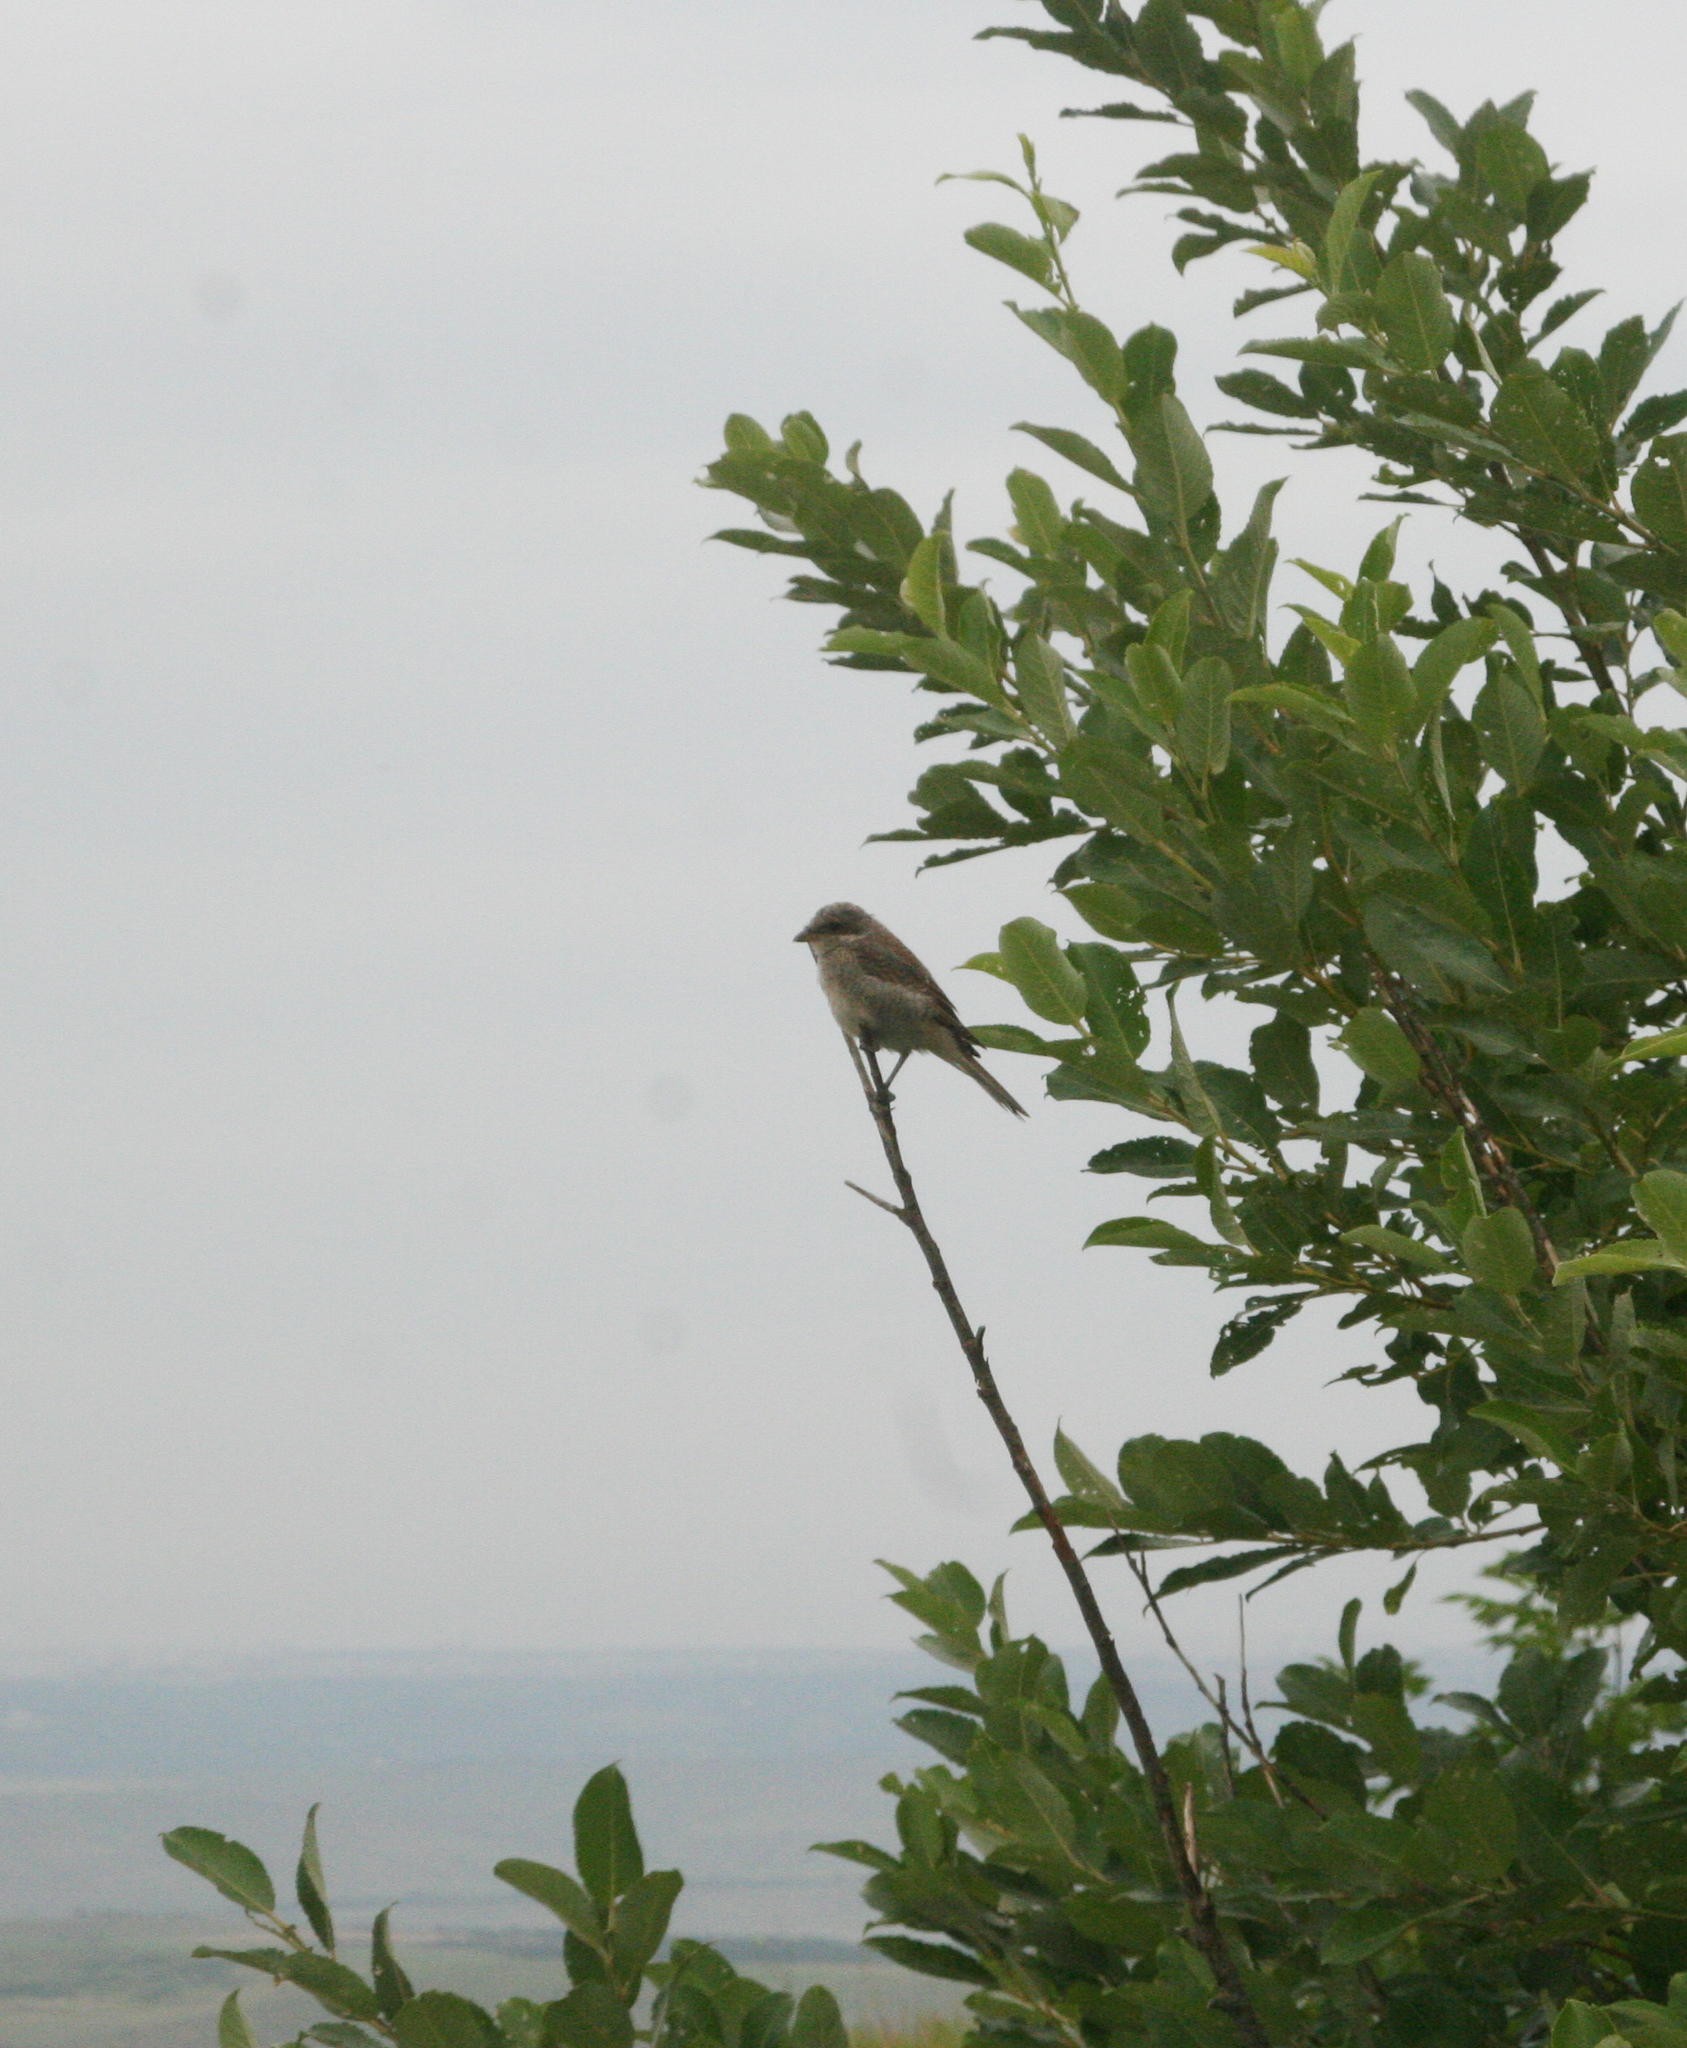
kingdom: Animalia
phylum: Chordata
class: Aves
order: Passeriformes
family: Laniidae
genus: Lanius
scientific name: Lanius collurio
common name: Red-backed shrike
